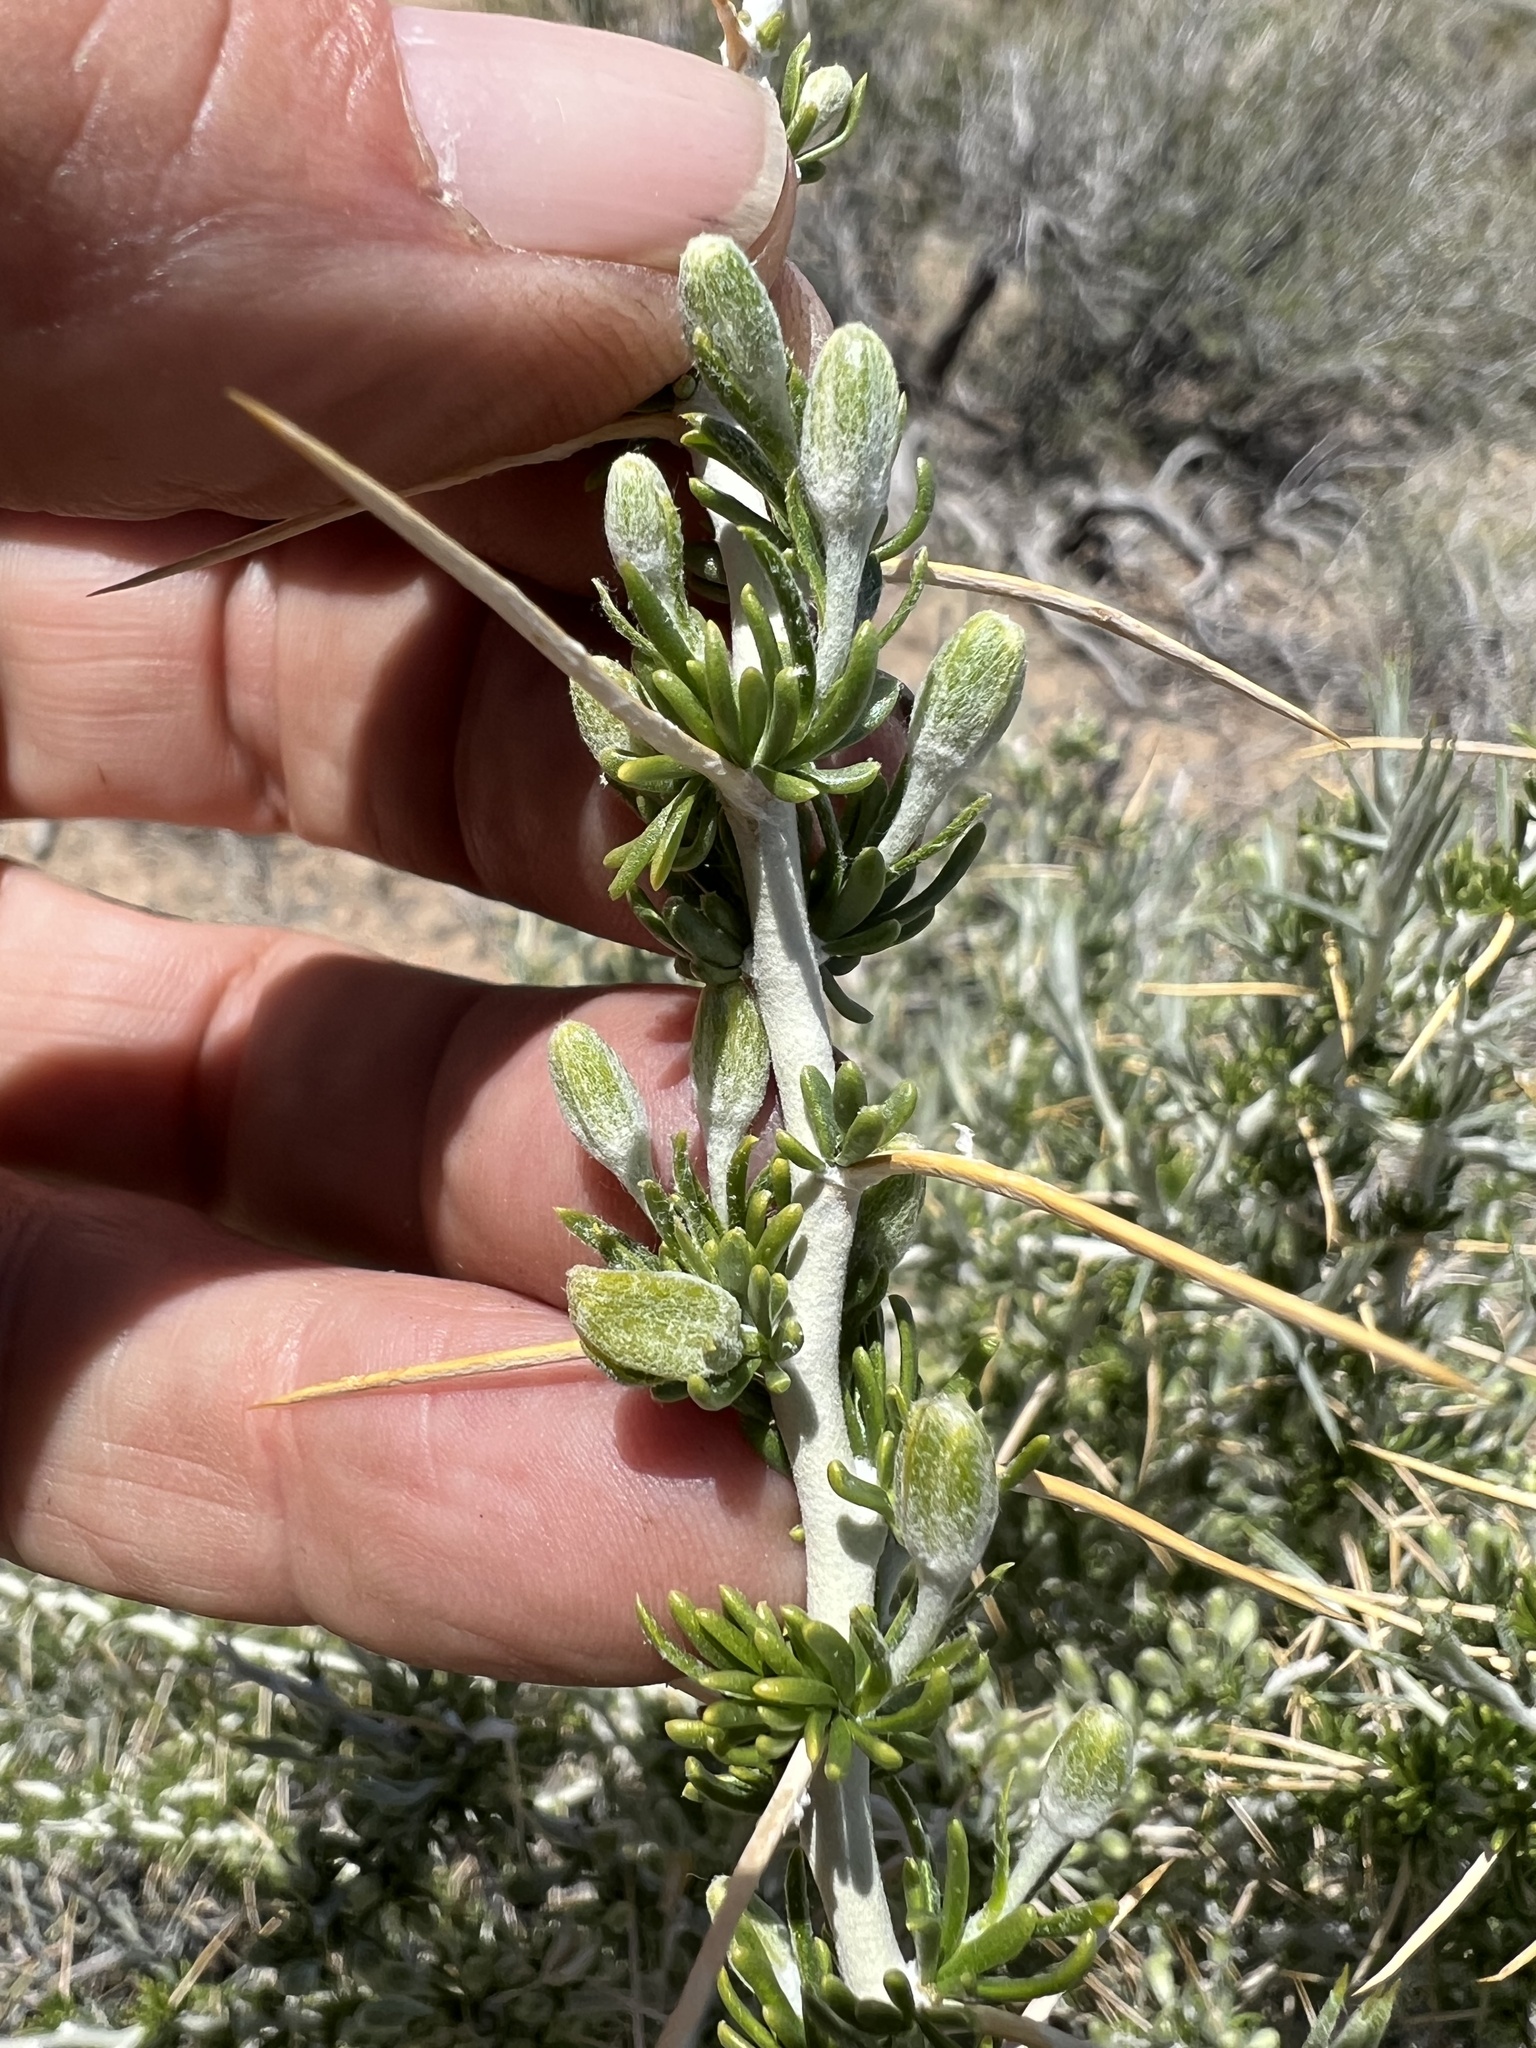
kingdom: Plantae
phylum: Tracheophyta
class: Magnoliopsida
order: Asterales
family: Asteraceae
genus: Tetradymia
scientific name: Tetradymia axillaris
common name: Long-spine horsebrush
